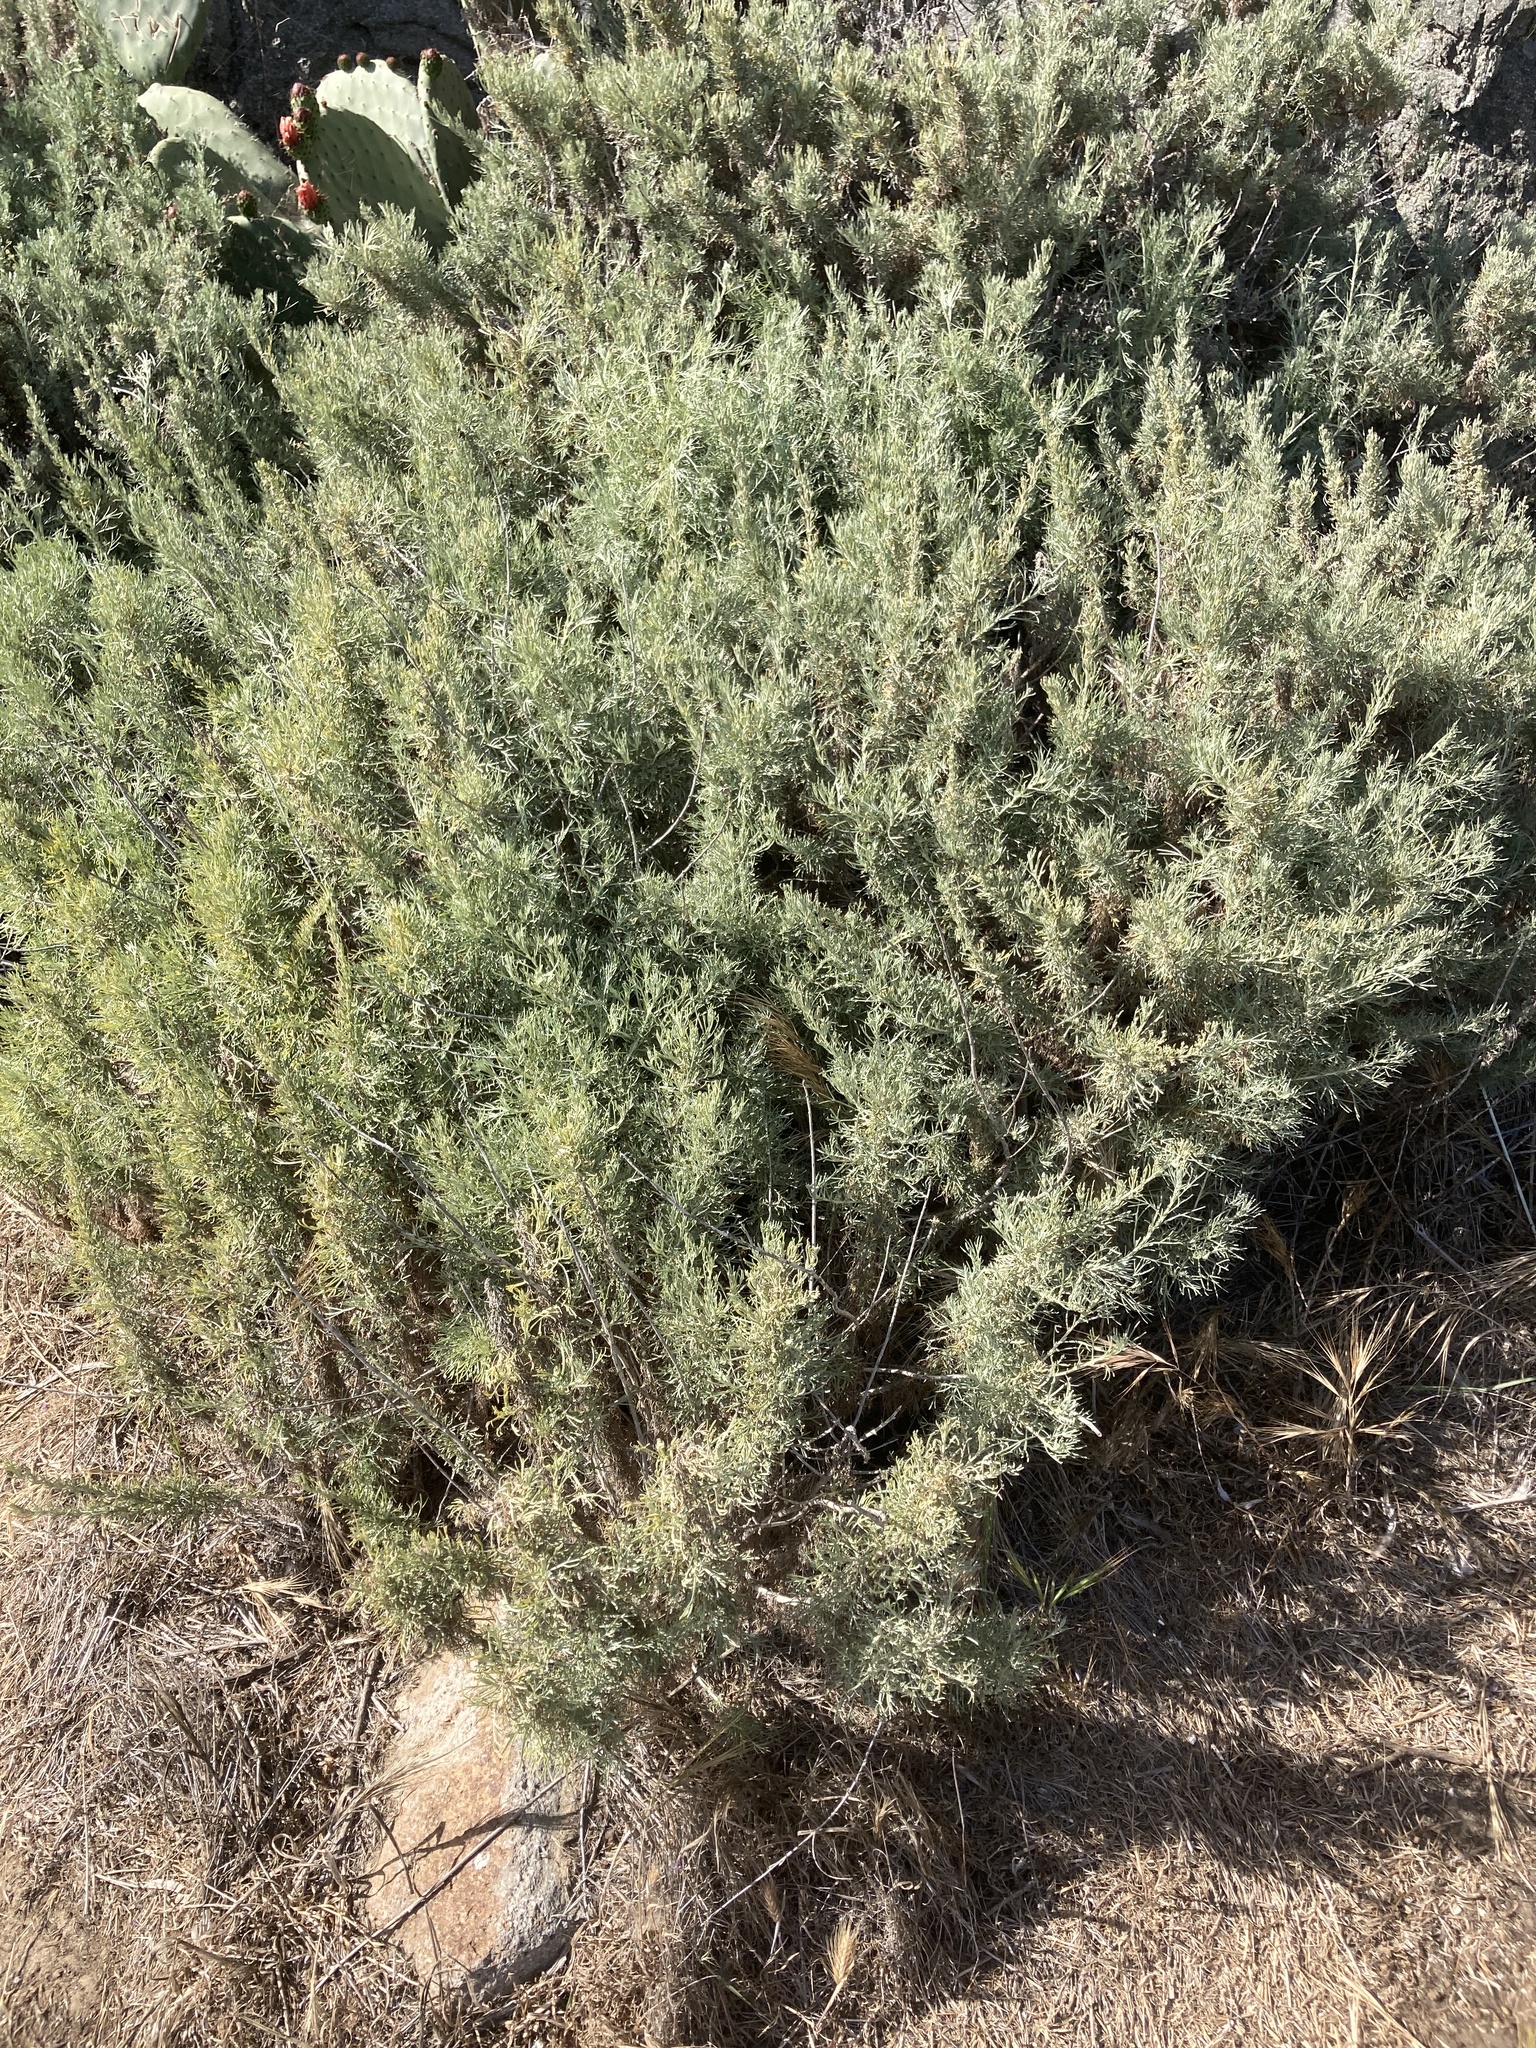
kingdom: Plantae
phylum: Tracheophyta
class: Magnoliopsida
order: Asterales
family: Asteraceae
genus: Artemisia
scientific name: Artemisia californica
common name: California sagebrush
